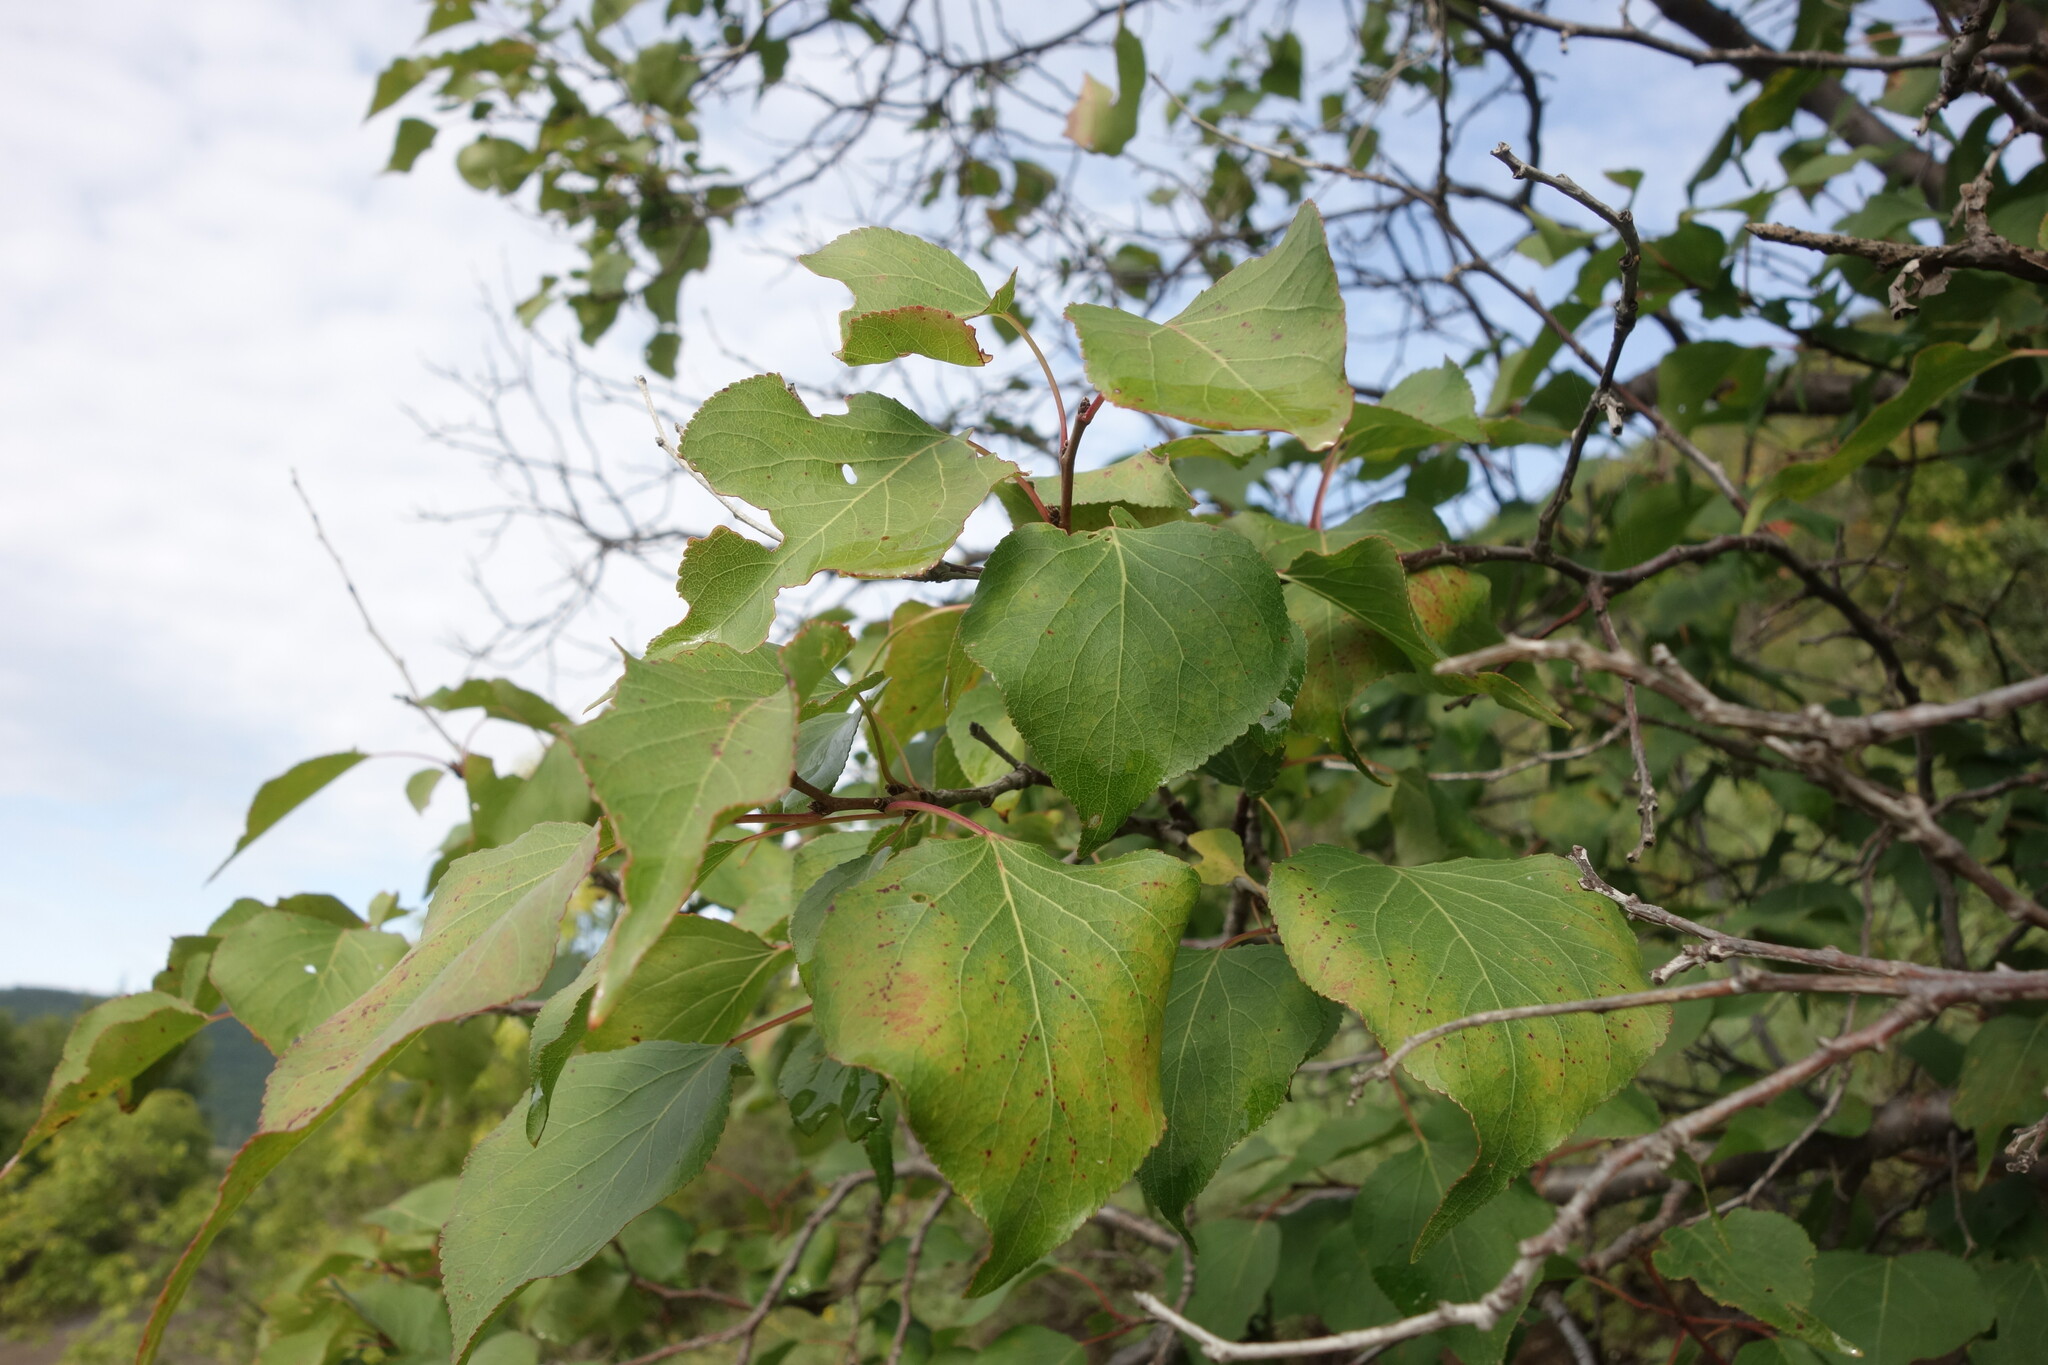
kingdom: Plantae
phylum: Tracheophyta
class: Magnoliopsida
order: Rosales
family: Rosaceae
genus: Prunus
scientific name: Prunus sibirica
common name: Siberian apricot
